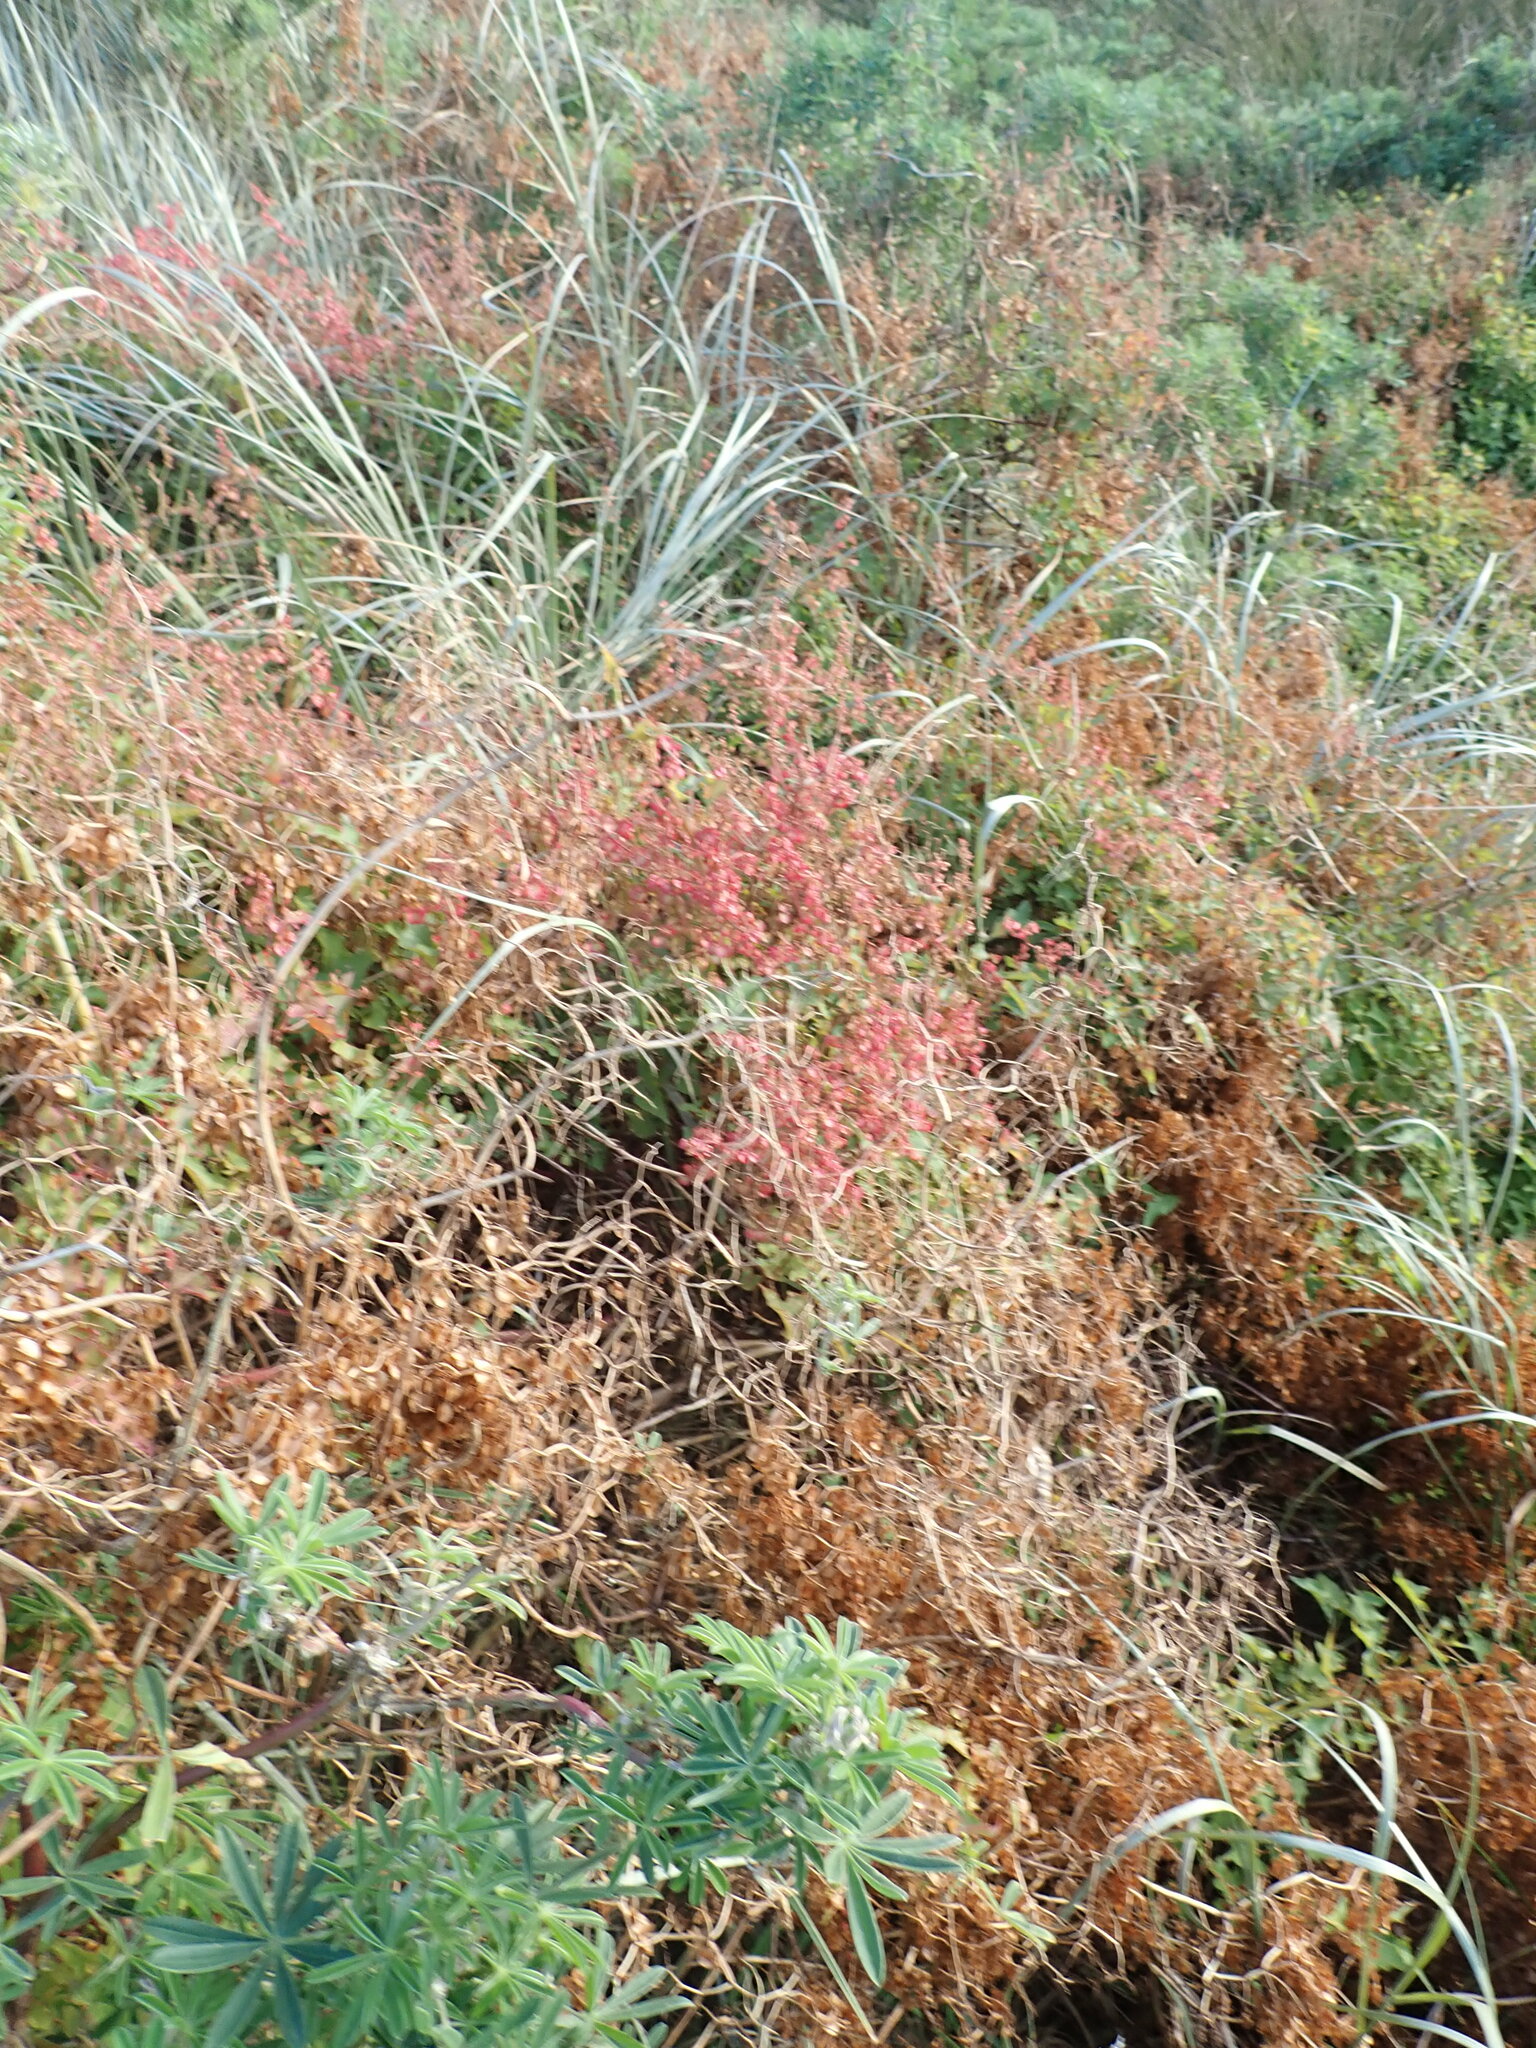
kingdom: Plantae
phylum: Tracheophyta
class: Magnoliopsida
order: Caryophyllales
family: Polygonaceae
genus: Rumex
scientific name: Rumex sagittatus
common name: Climbing dock
